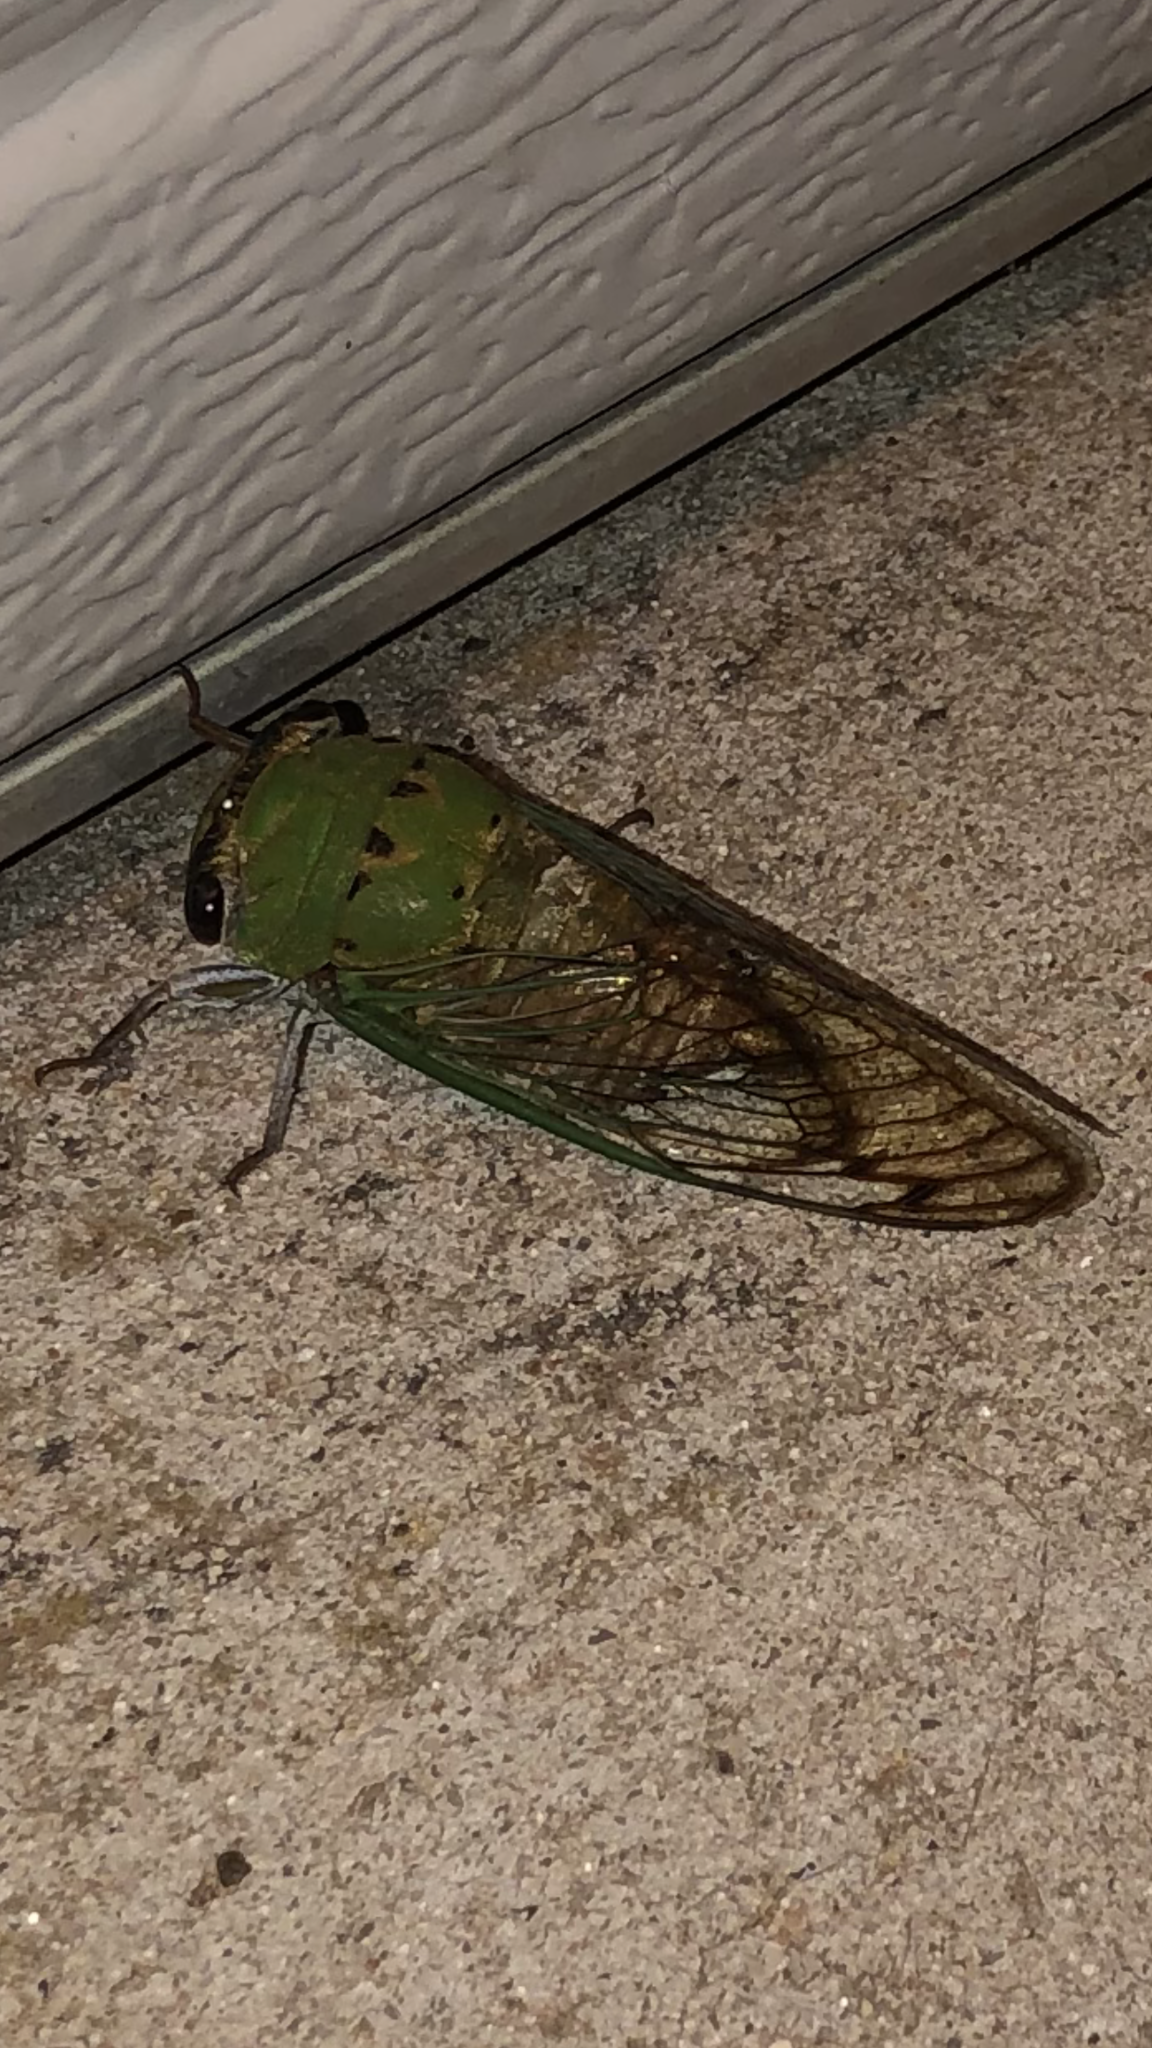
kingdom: Animalia
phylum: Arthropoda
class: Insecta
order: Hemiptera
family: Cicadidae
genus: Neotibicen
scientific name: Neotibicen superbus
